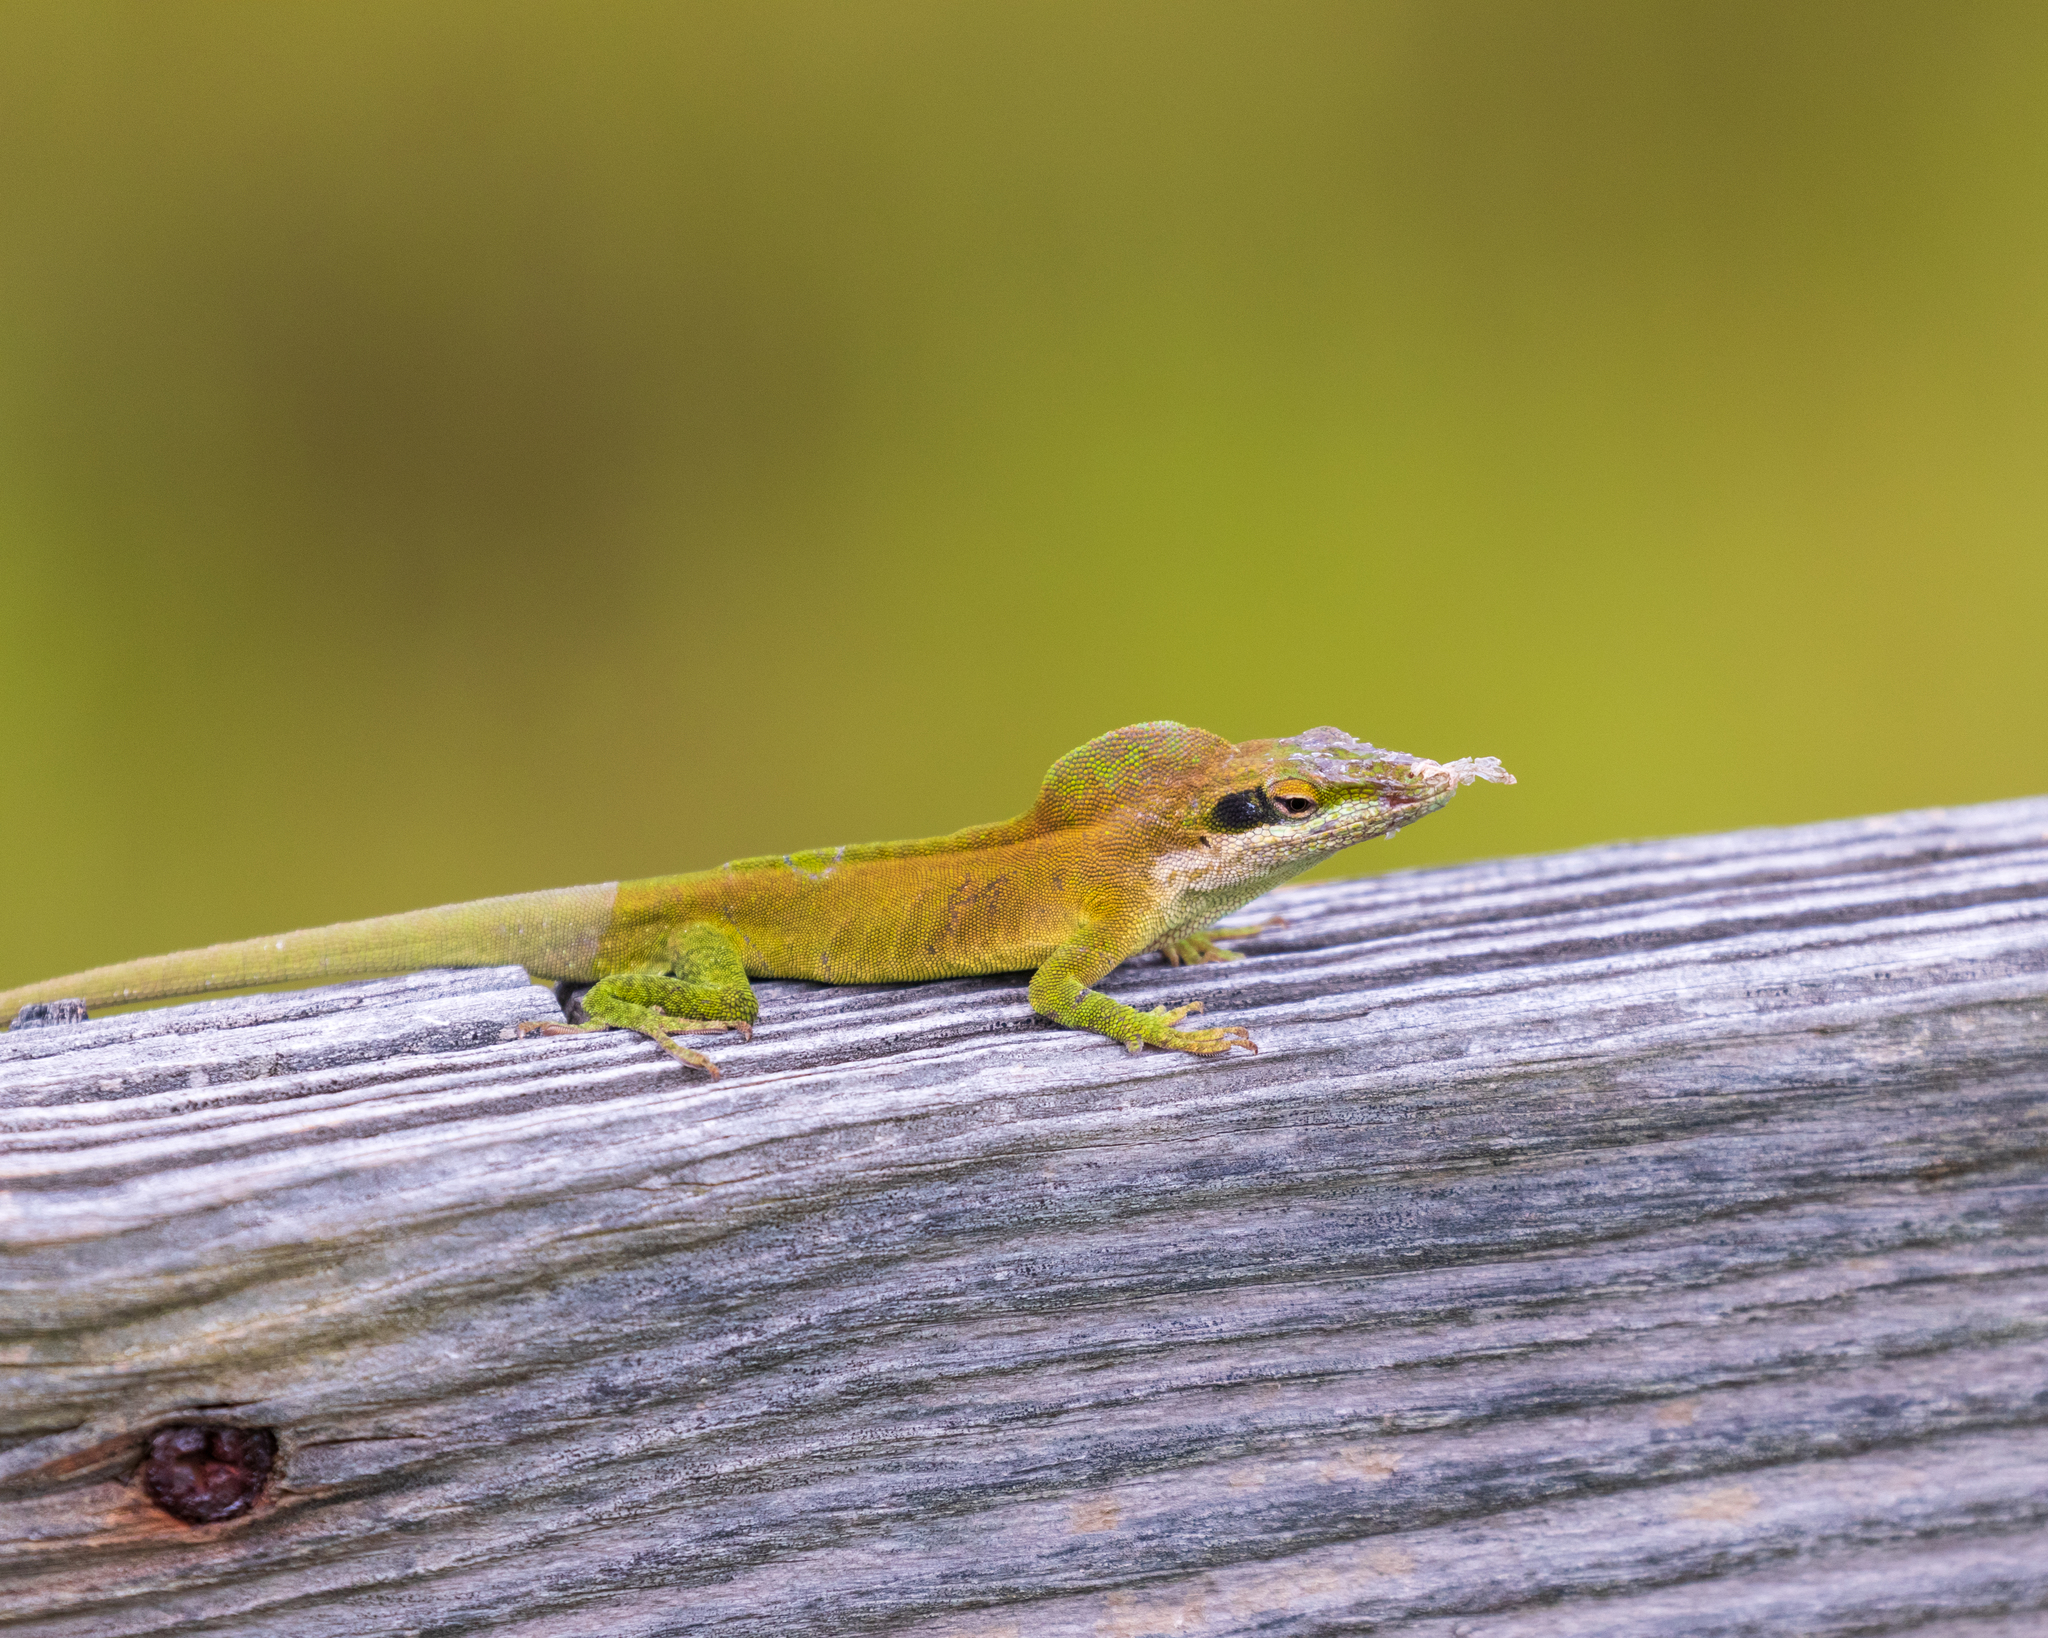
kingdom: Animalia
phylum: Chordata
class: Squamata
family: Dactyloidae
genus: Anolis
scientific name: Anolis carolinensis
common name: Green anole
